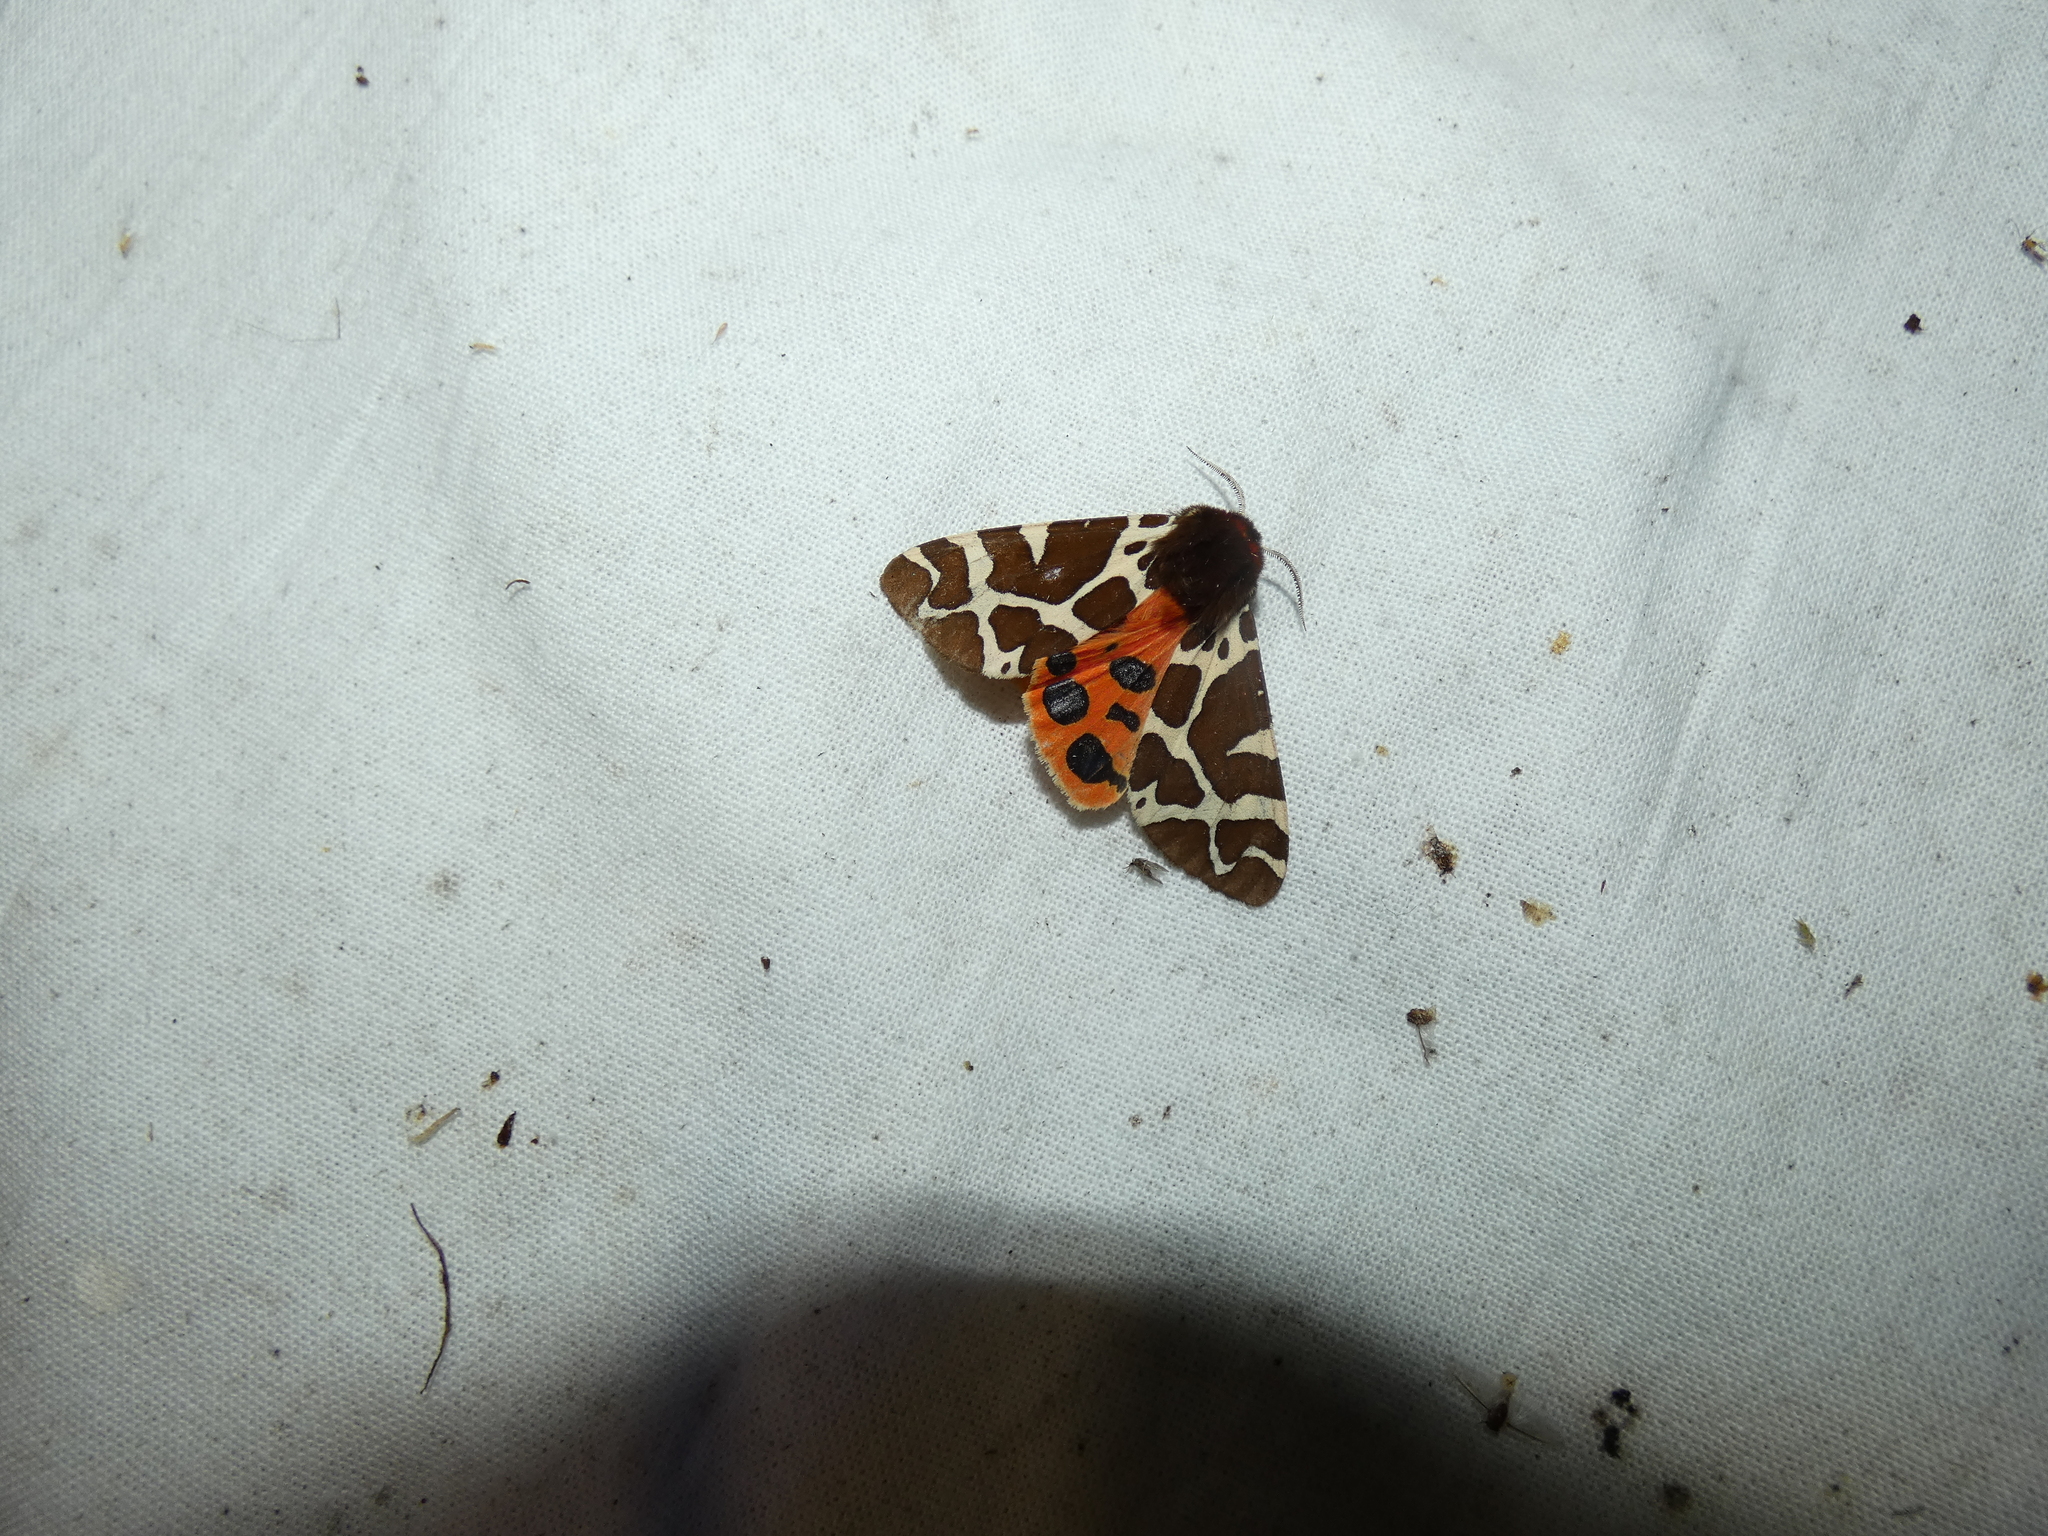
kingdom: Animalia
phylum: Arthropoda
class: Insecta
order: Lepidoptera
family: Erebidae
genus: Arctia
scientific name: Arctia caja
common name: Garden tiger
